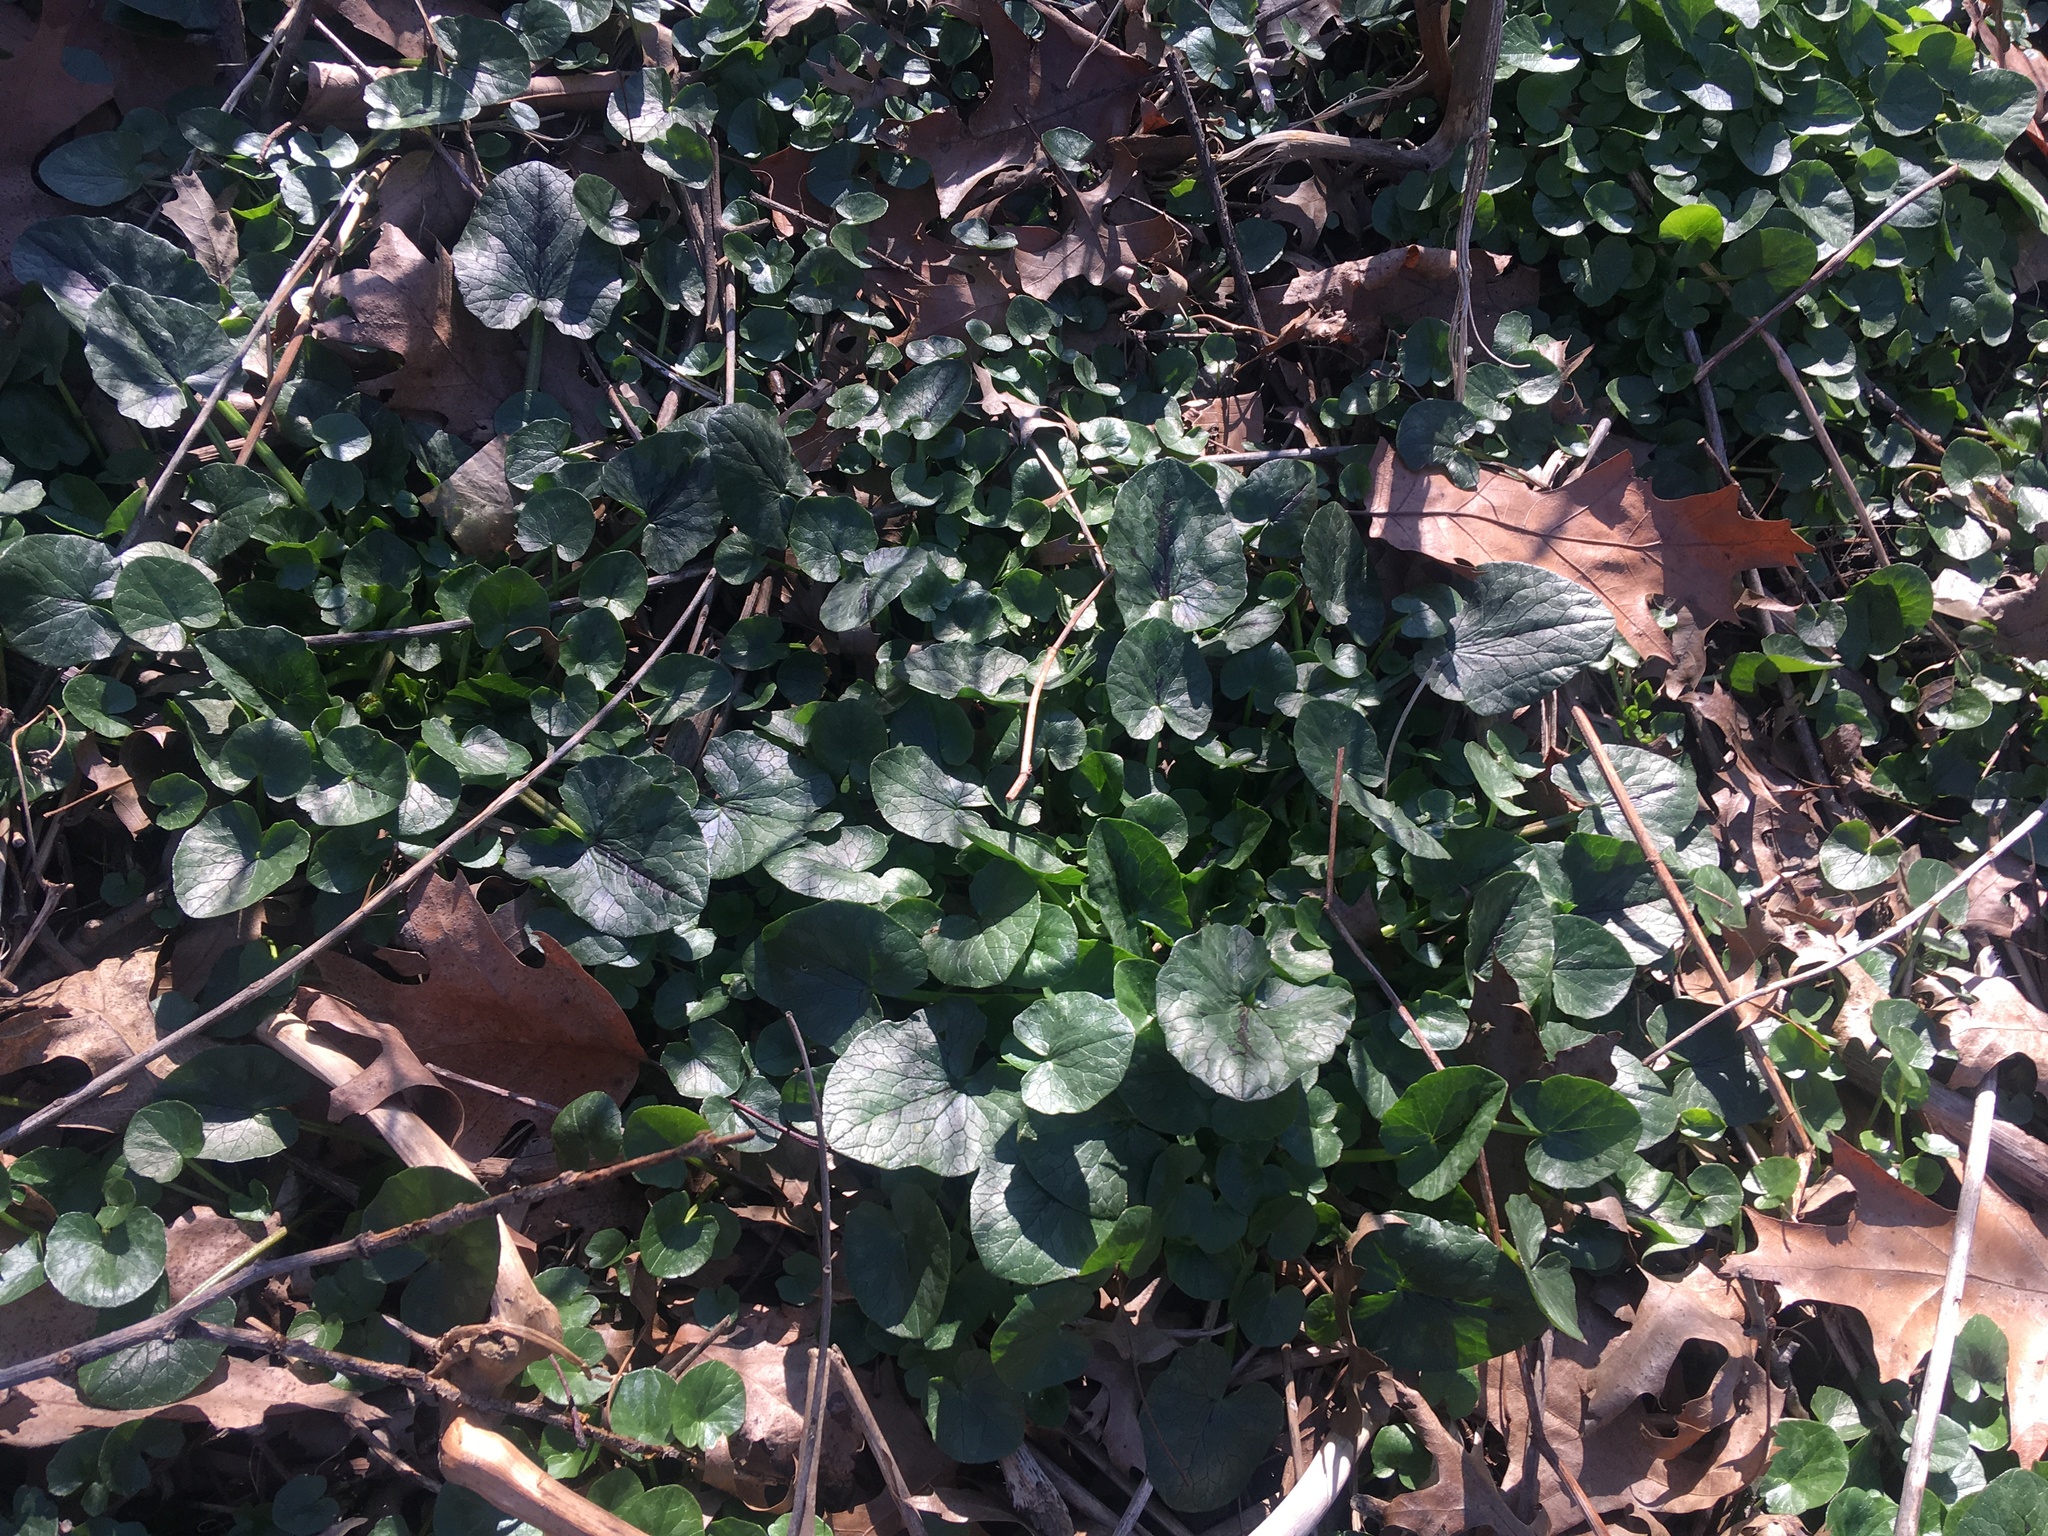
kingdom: Plantae
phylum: Tracheophyta
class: Magnoliopsida
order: Ranunculales
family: Ranunculaceae
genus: Ficaria
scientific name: Ficaria verna
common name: Lesser celandine
